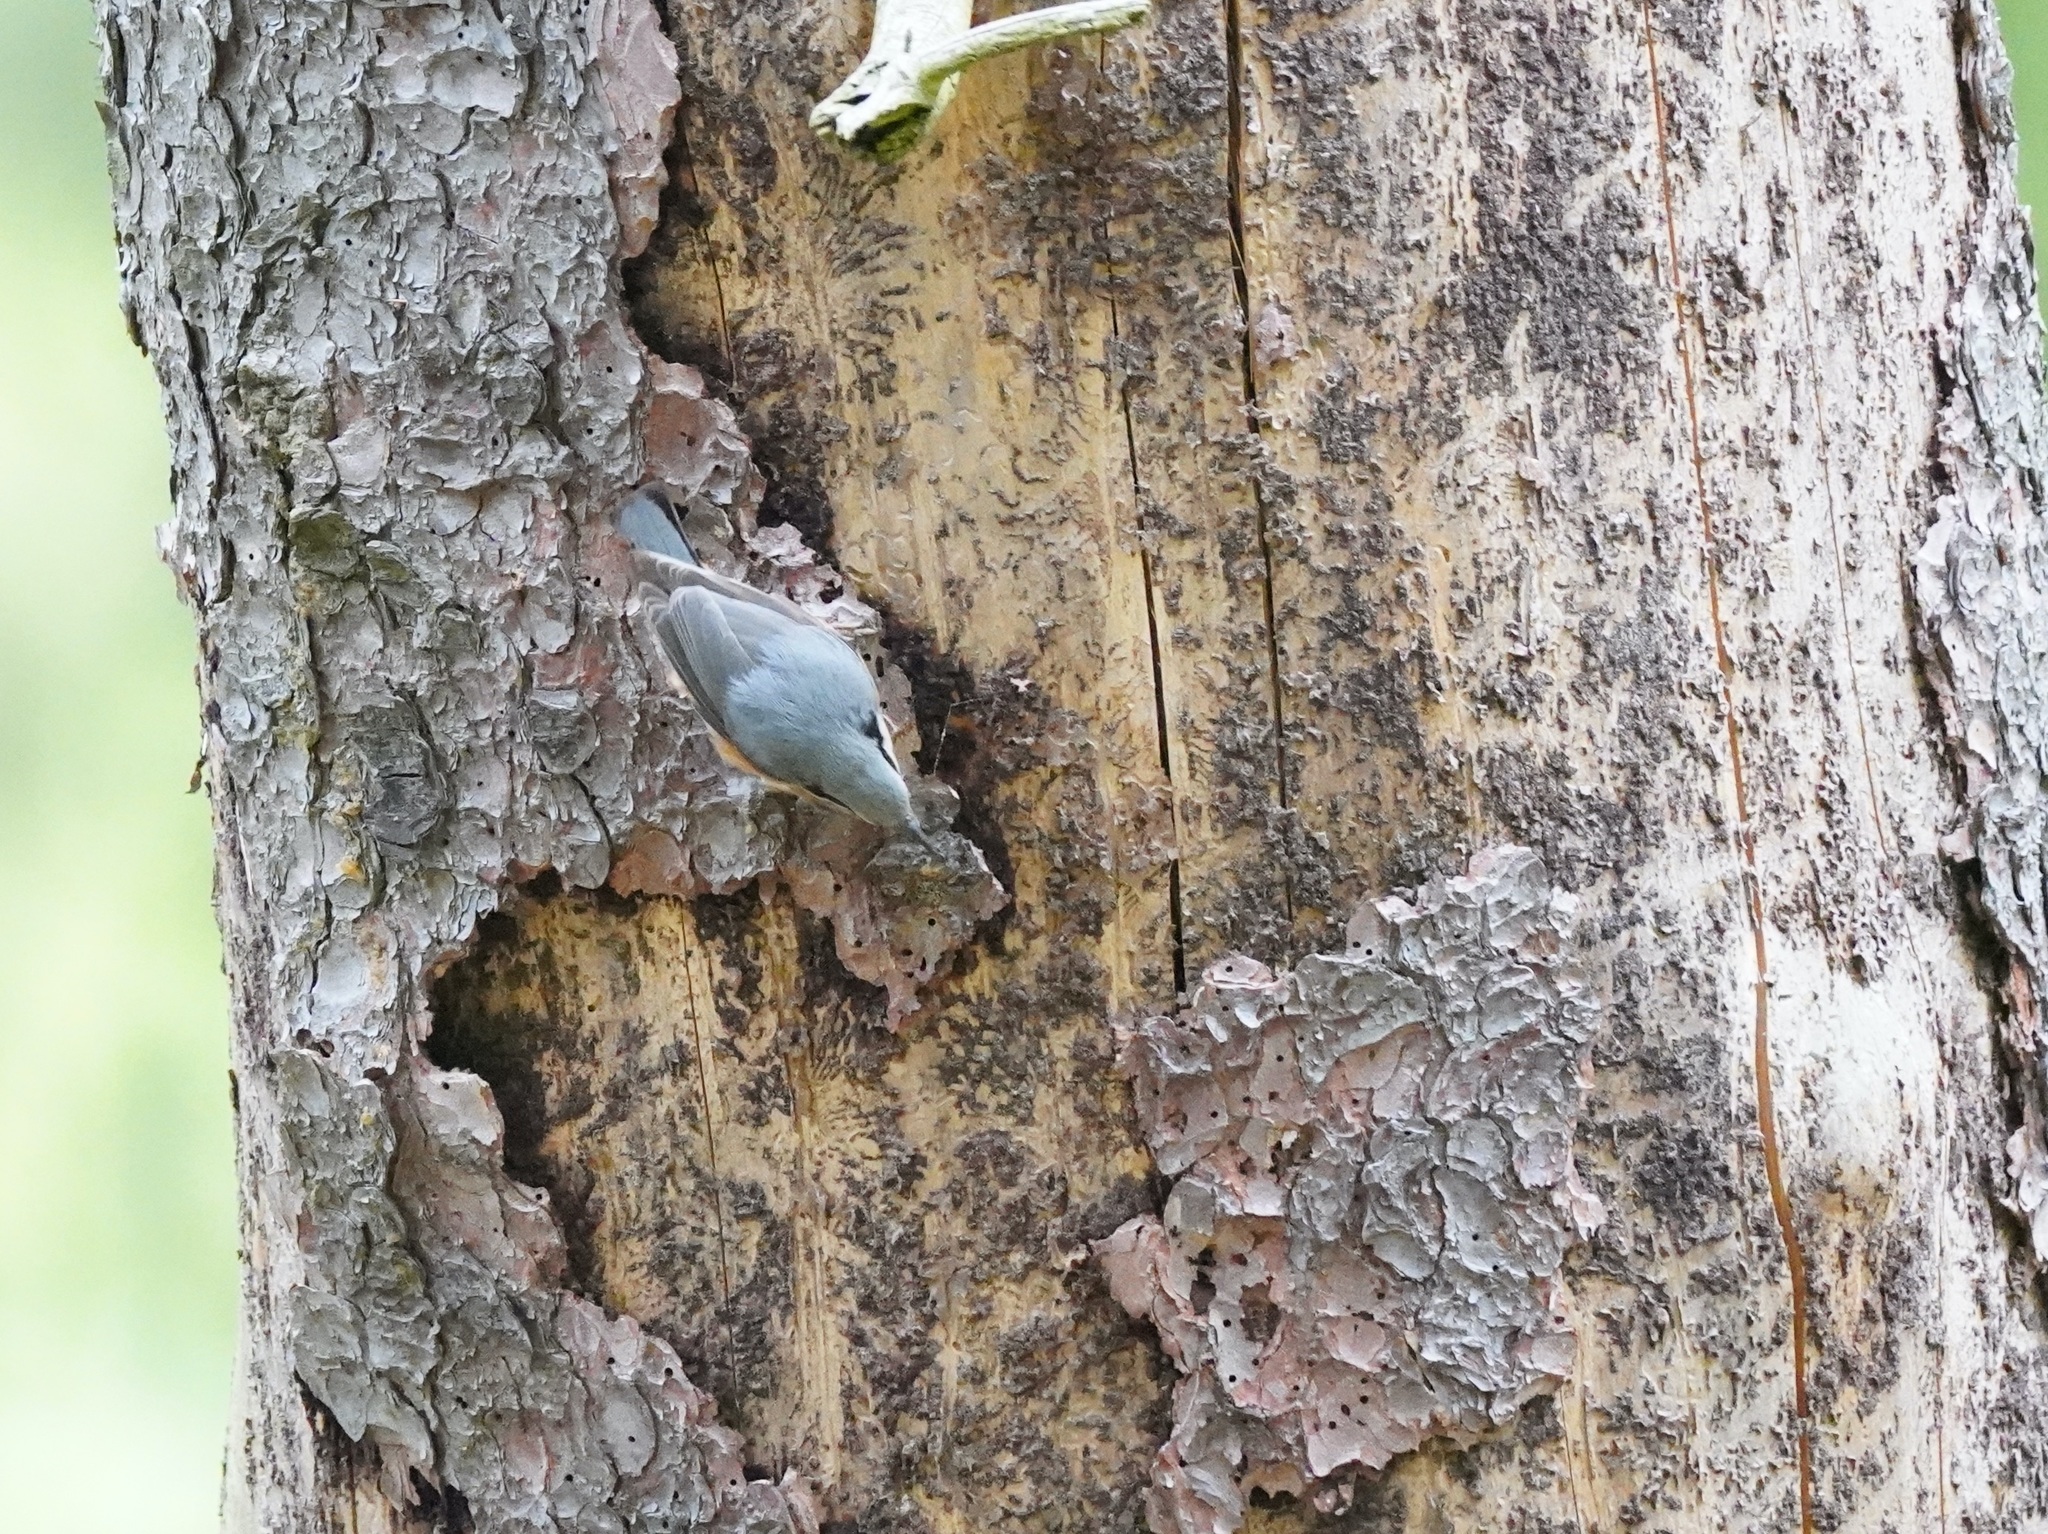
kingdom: Animalia
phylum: Chordata
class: Aves
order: Passeriformes
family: Sittidae
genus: Sitta
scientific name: Sitta europaea
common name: Eurasian nuthatch
